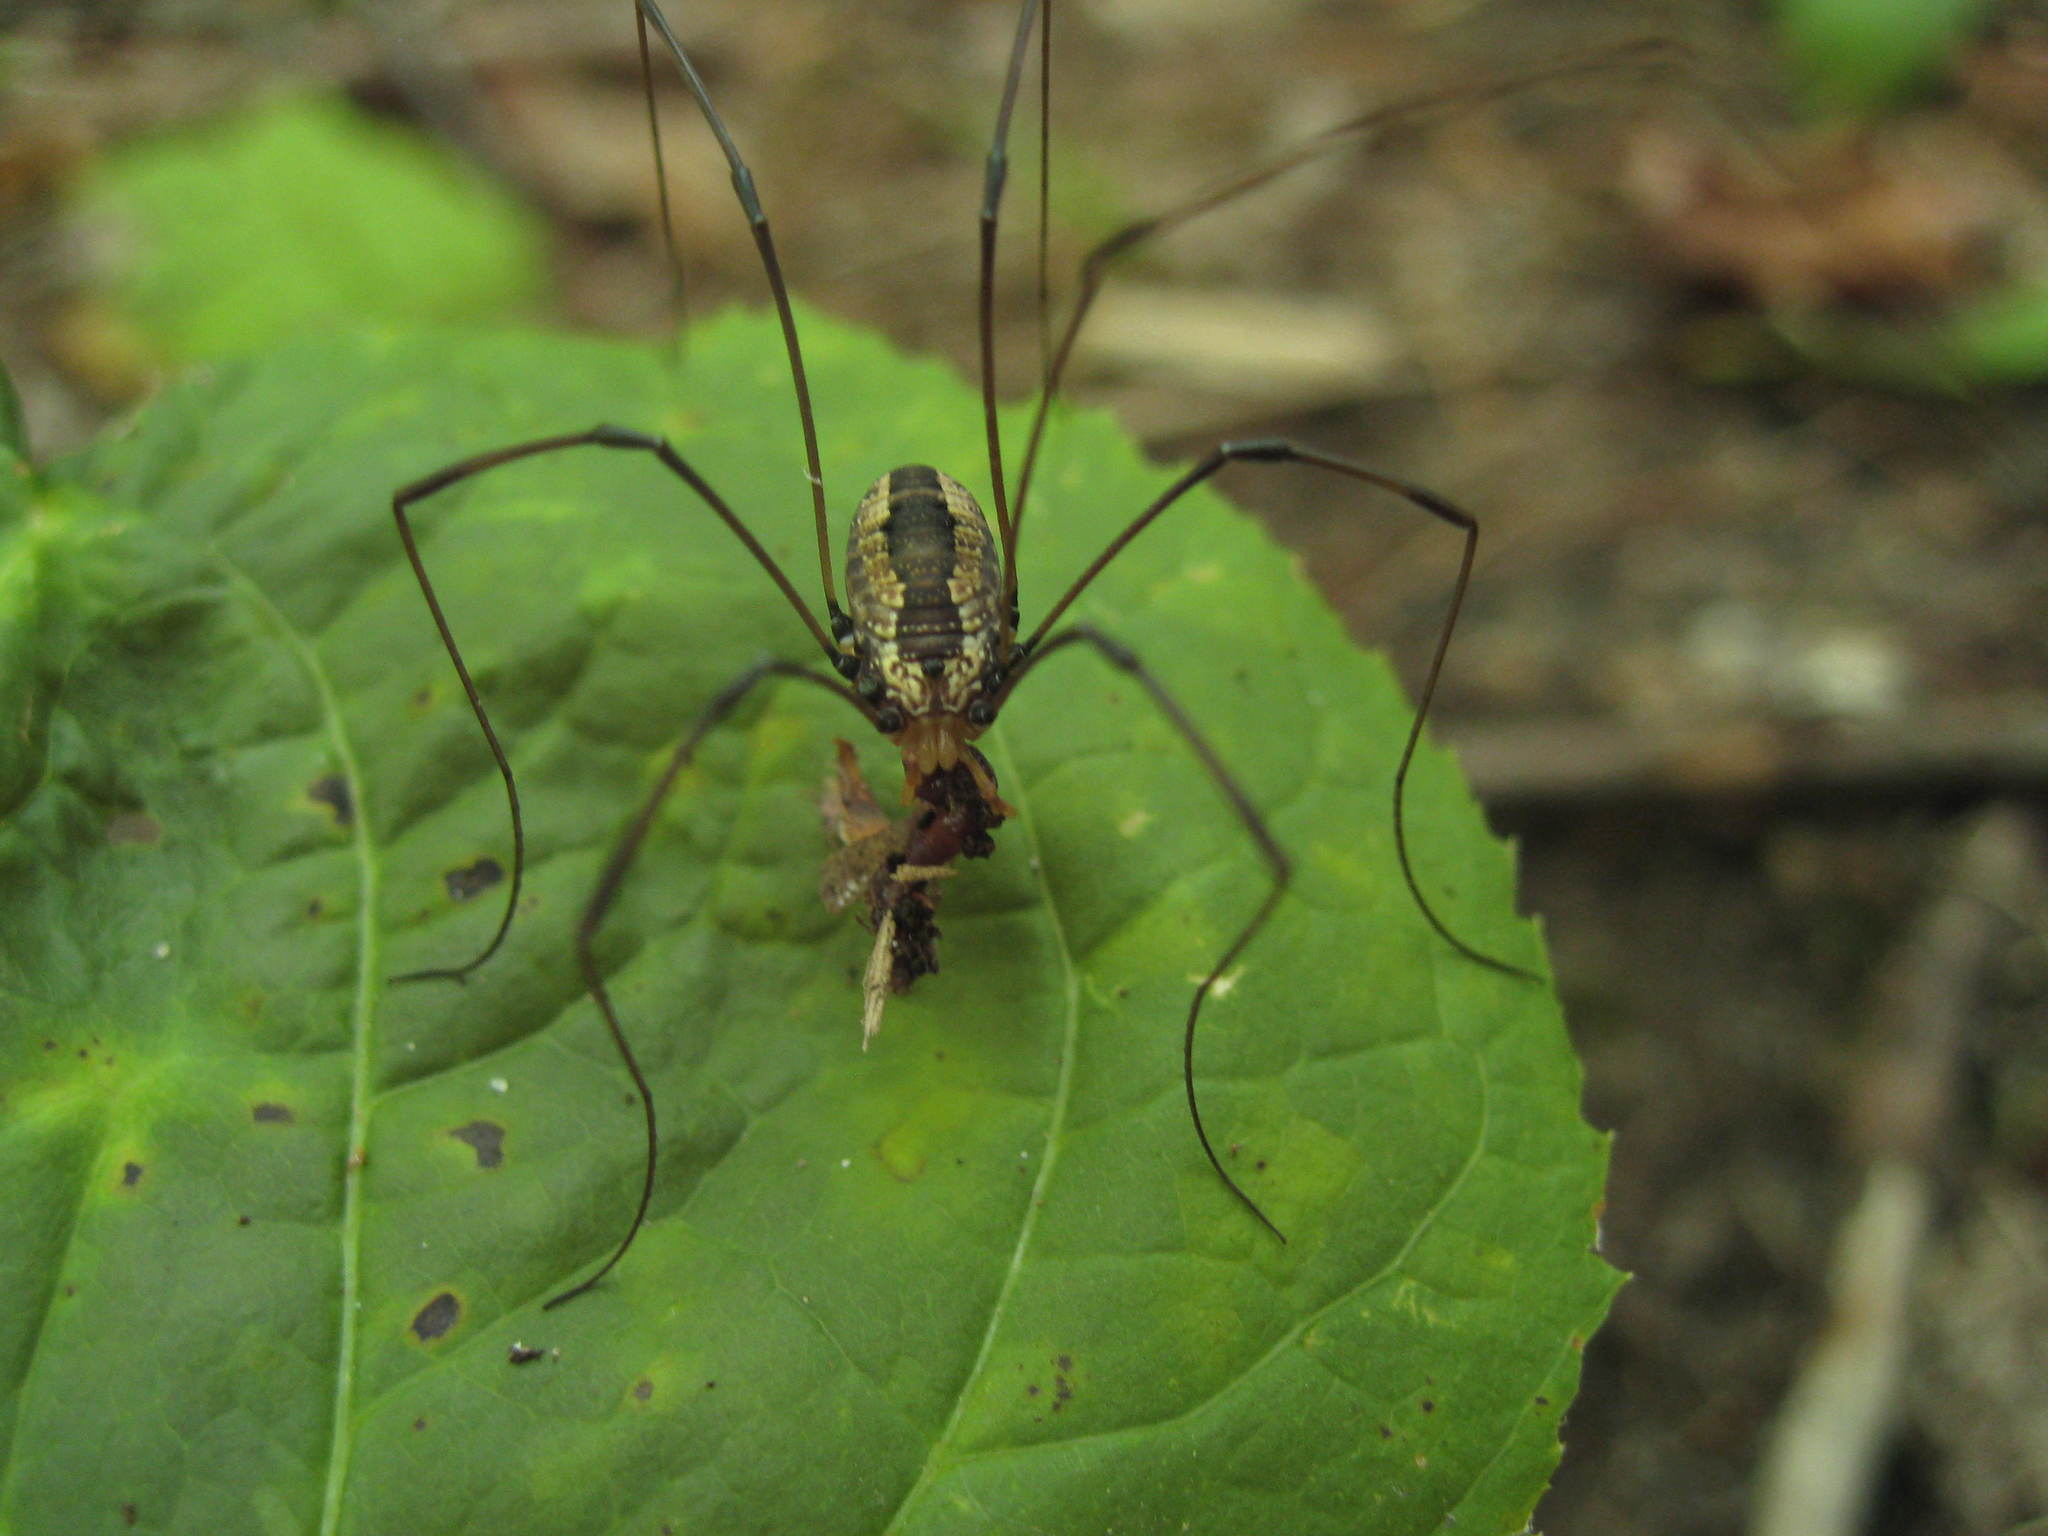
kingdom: Animalia
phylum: Arthropoda
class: Arachnida
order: Opiliones
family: Sclerosomatidae
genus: Leiobunum
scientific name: Leiobunum vittatum
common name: Eastern harvestman
